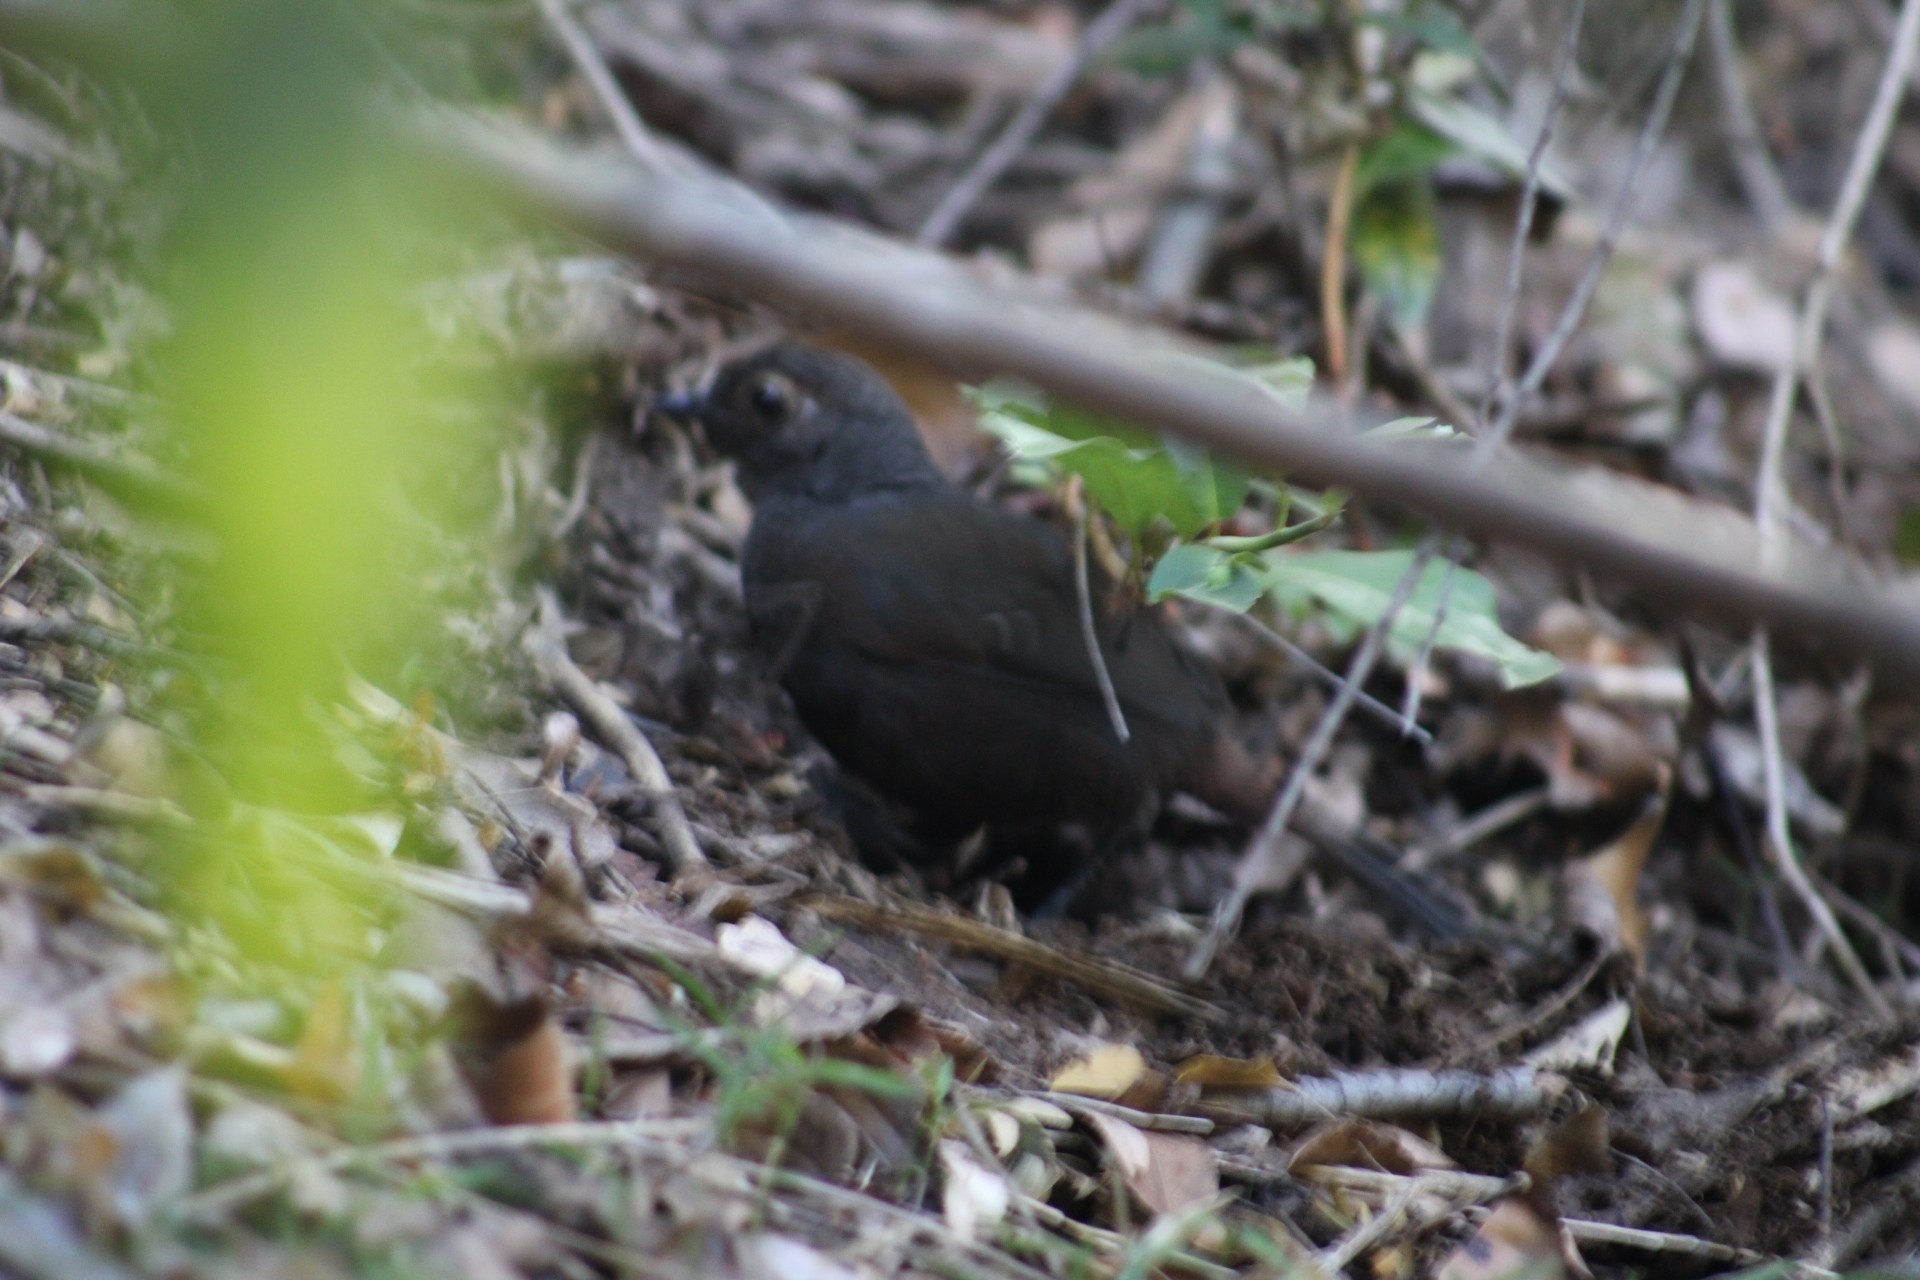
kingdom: Animalia
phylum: Chordata
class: Aves
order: Passeriformes
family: Rhinocryptidae
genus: Pteroptochos
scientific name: Pteroptochos castaneus
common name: Chestnut-throated huet-huet
